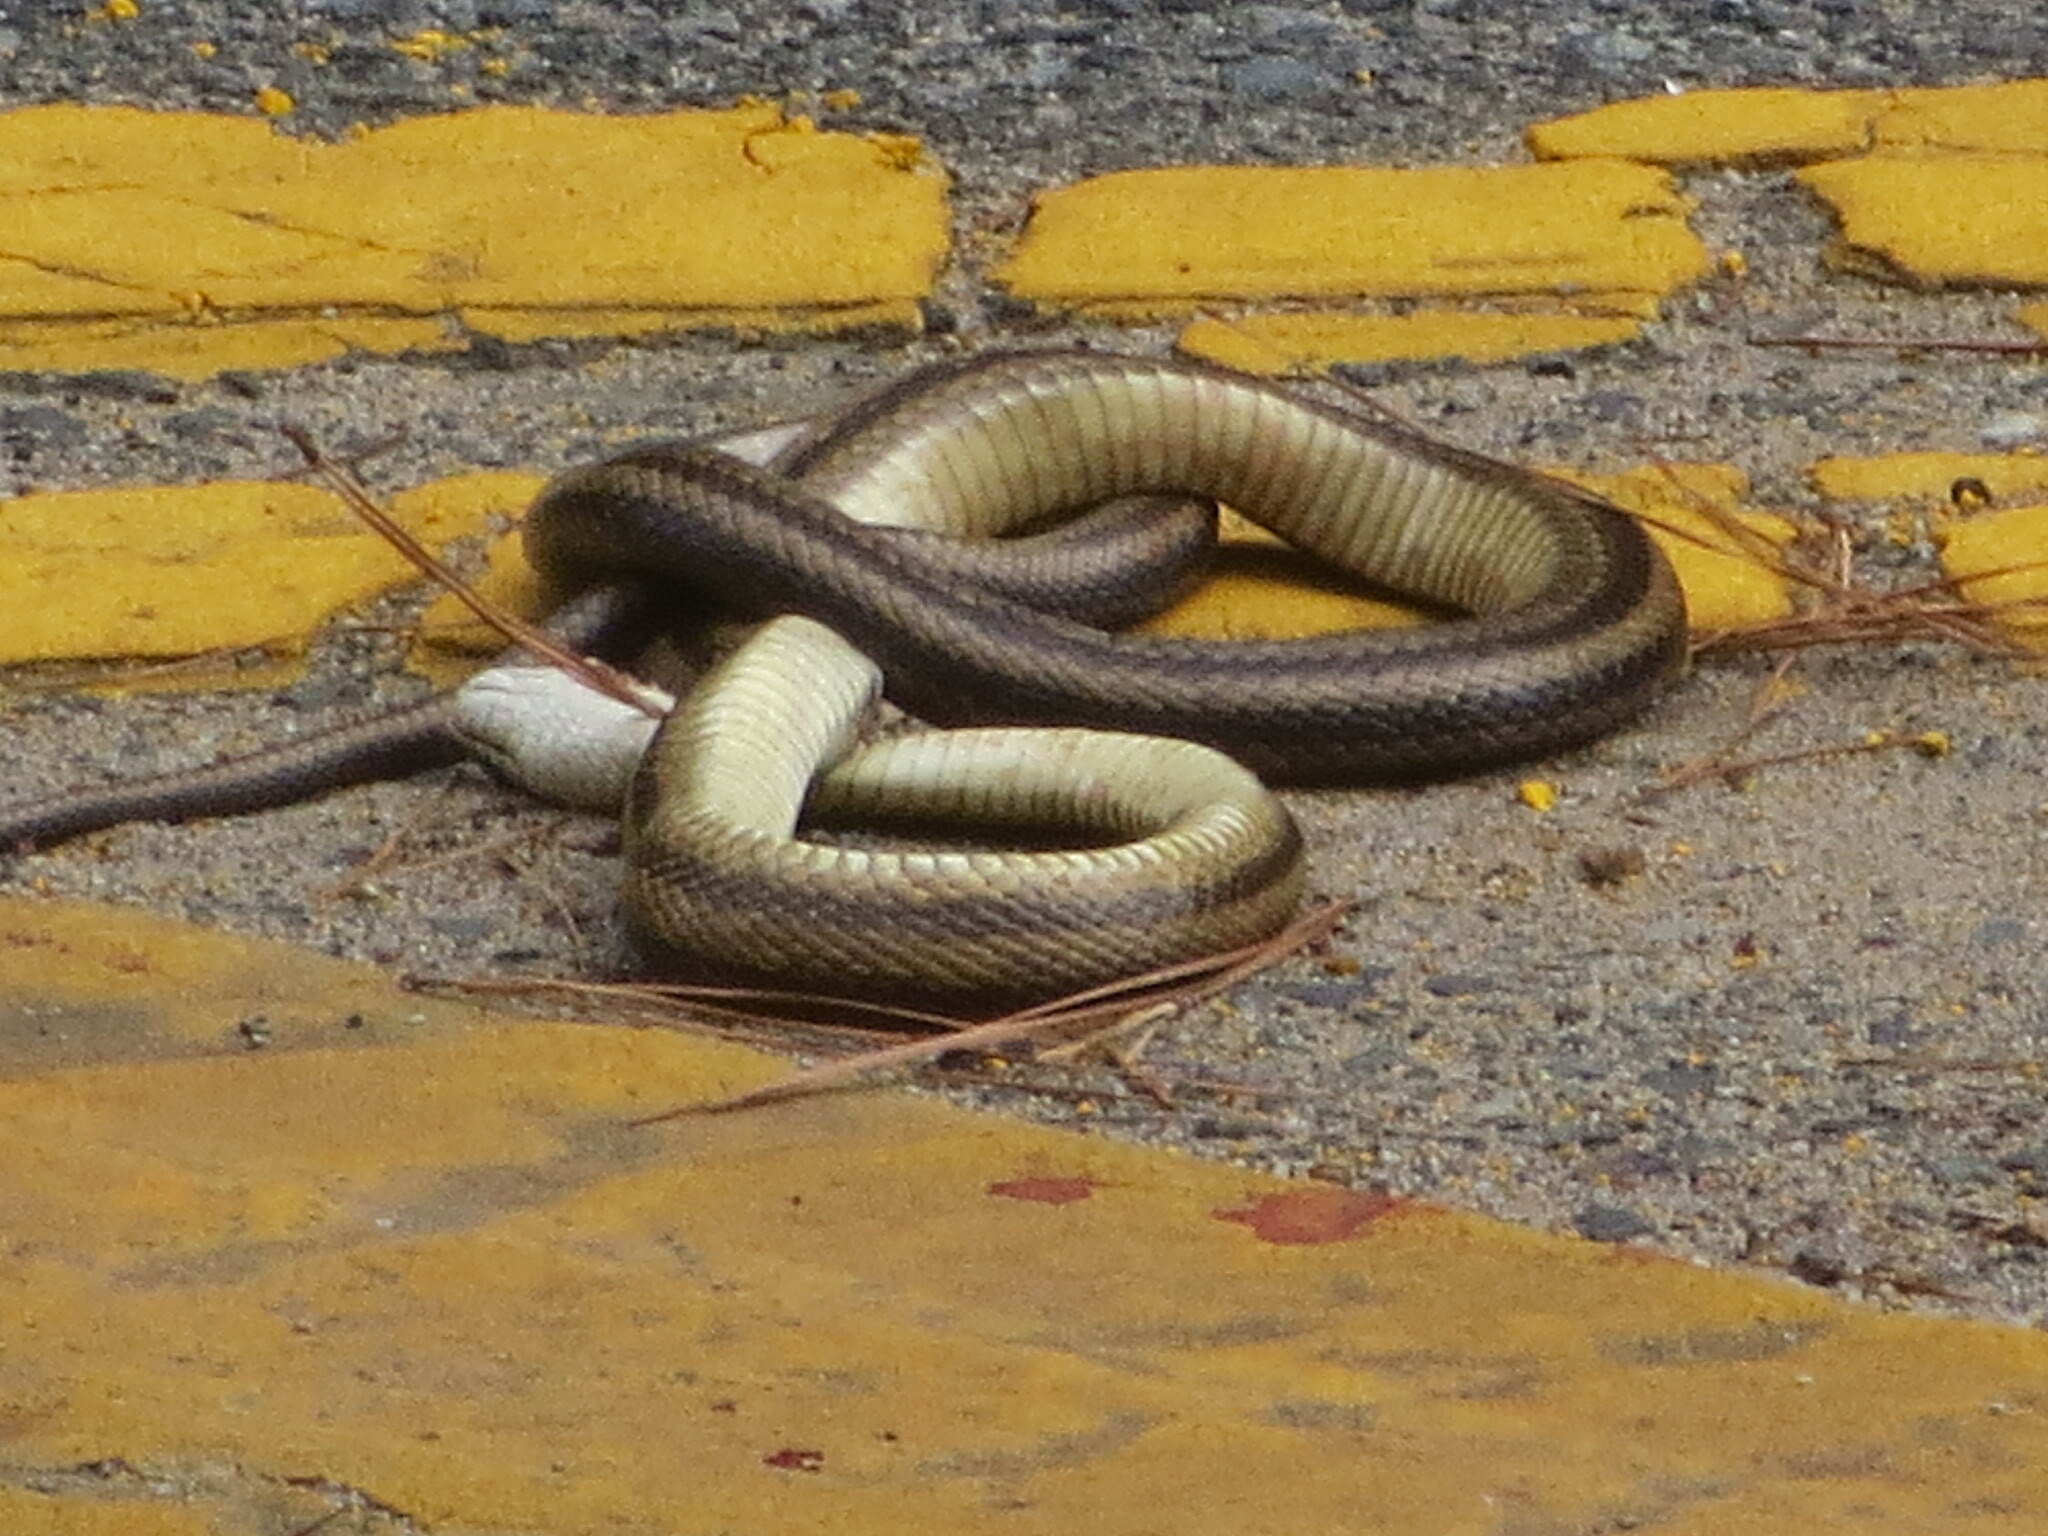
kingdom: Animalia
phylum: Chordata
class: Squamata
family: Colubridae
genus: Pantherophis
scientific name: Pantherophis alleghaniensis
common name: Eastern rat snake
